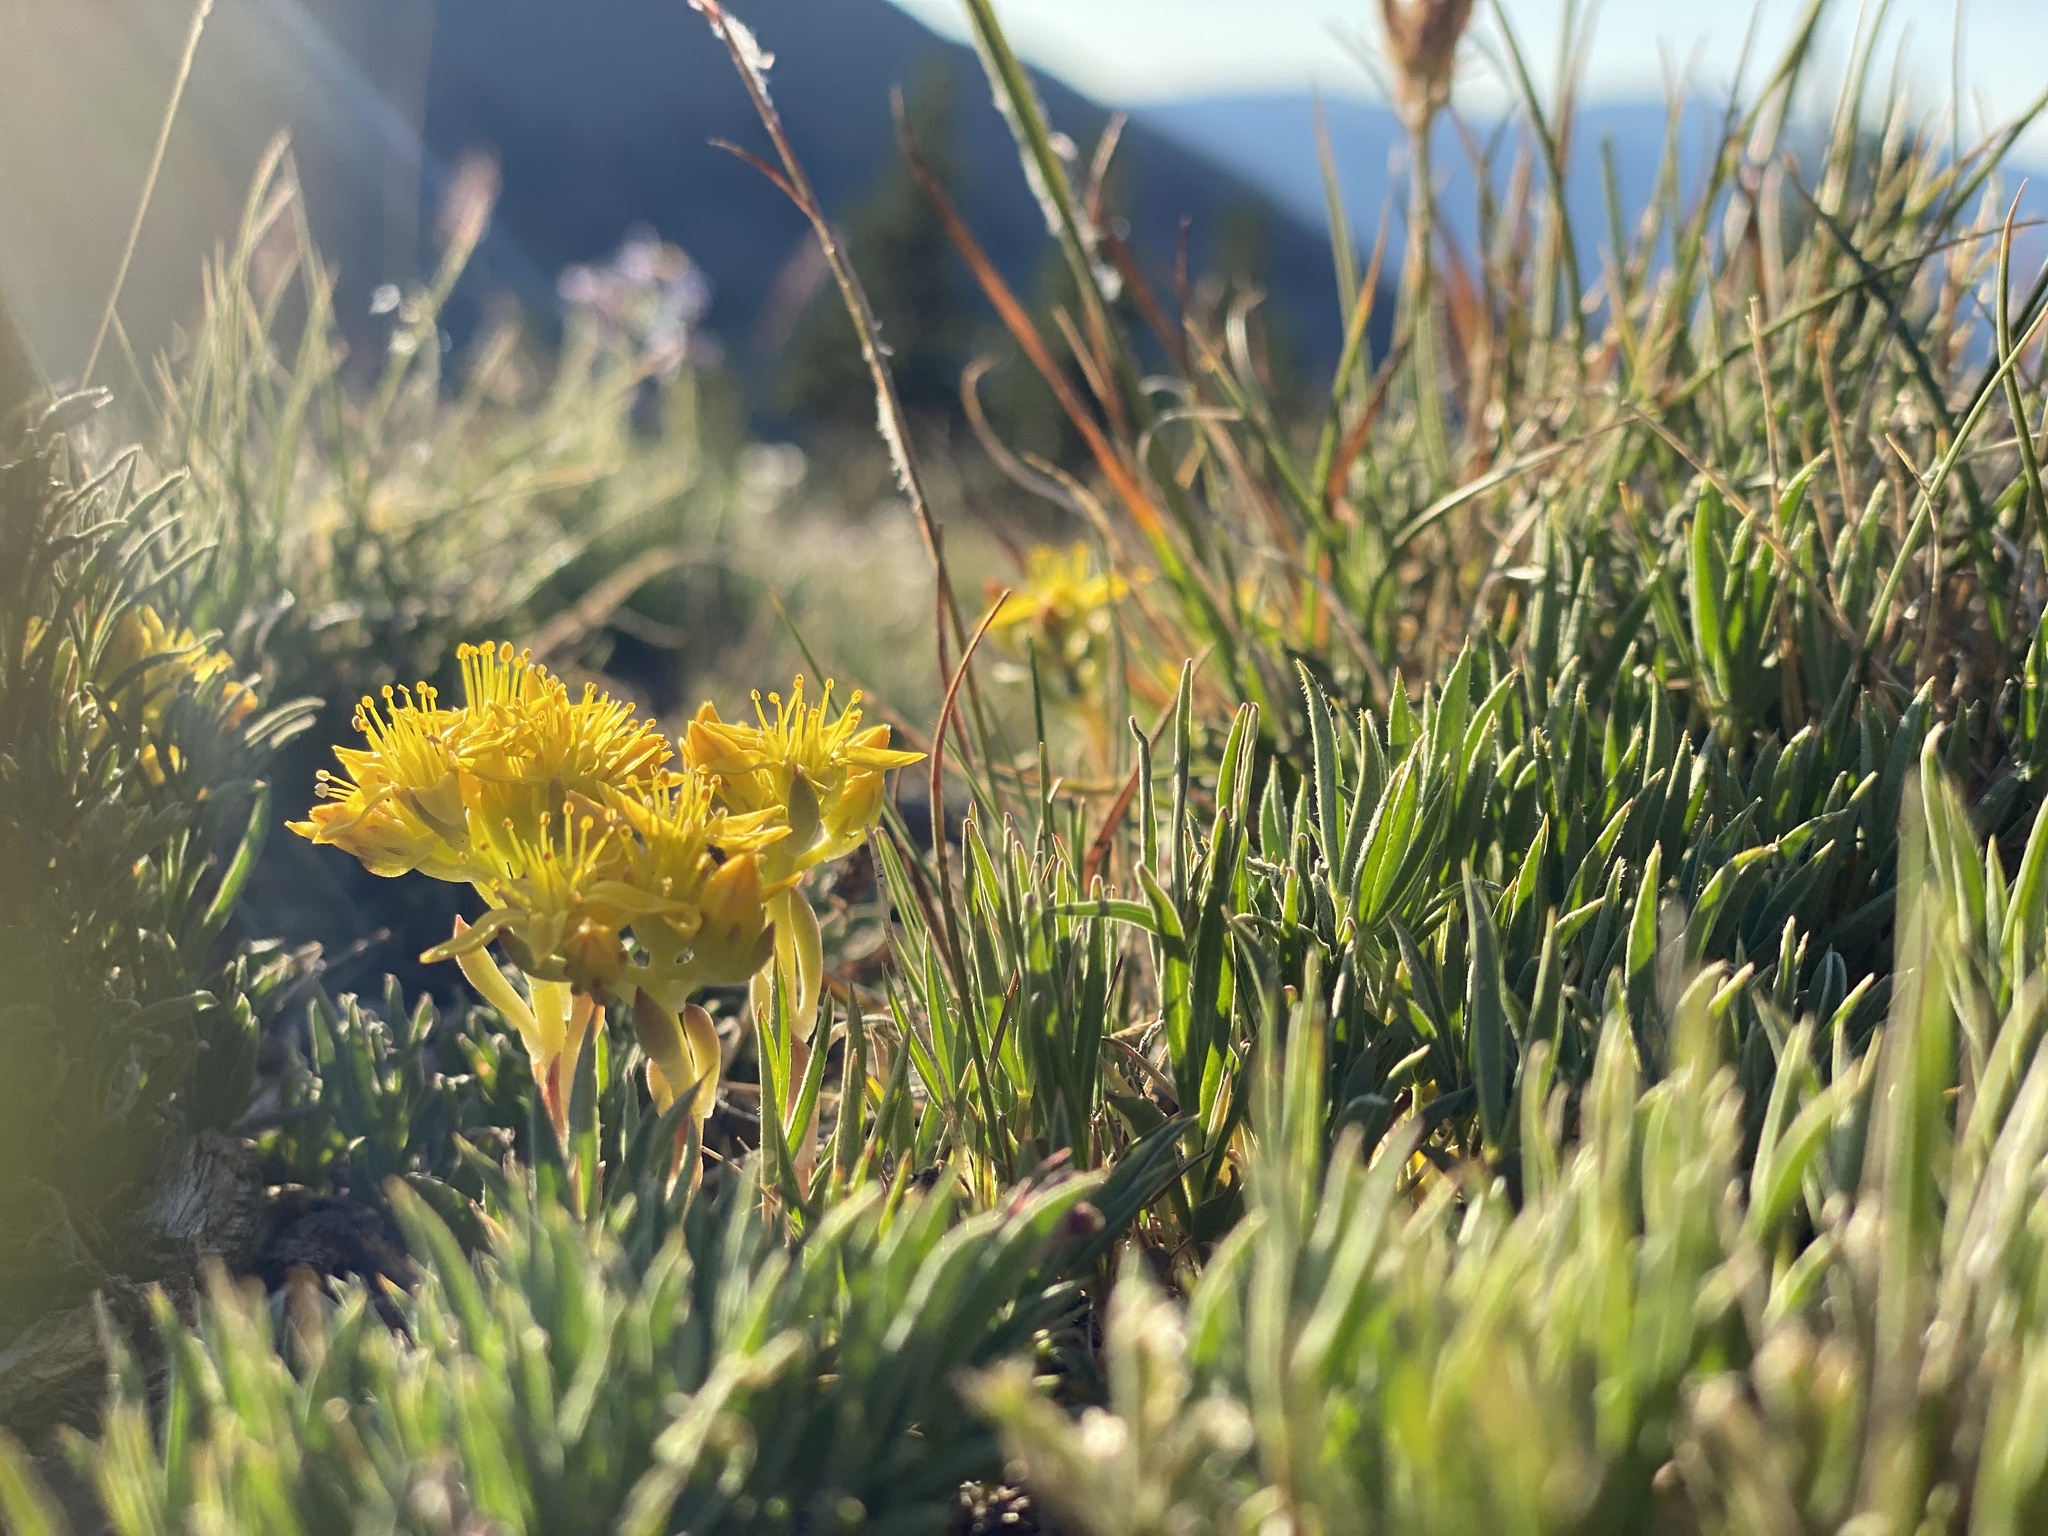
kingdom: Plantae
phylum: Tracheophyta
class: Magnoliopsida
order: Saxifragales
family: Crassulaceae
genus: Sedum
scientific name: Sedum lanceolatum
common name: Common stonecrop
